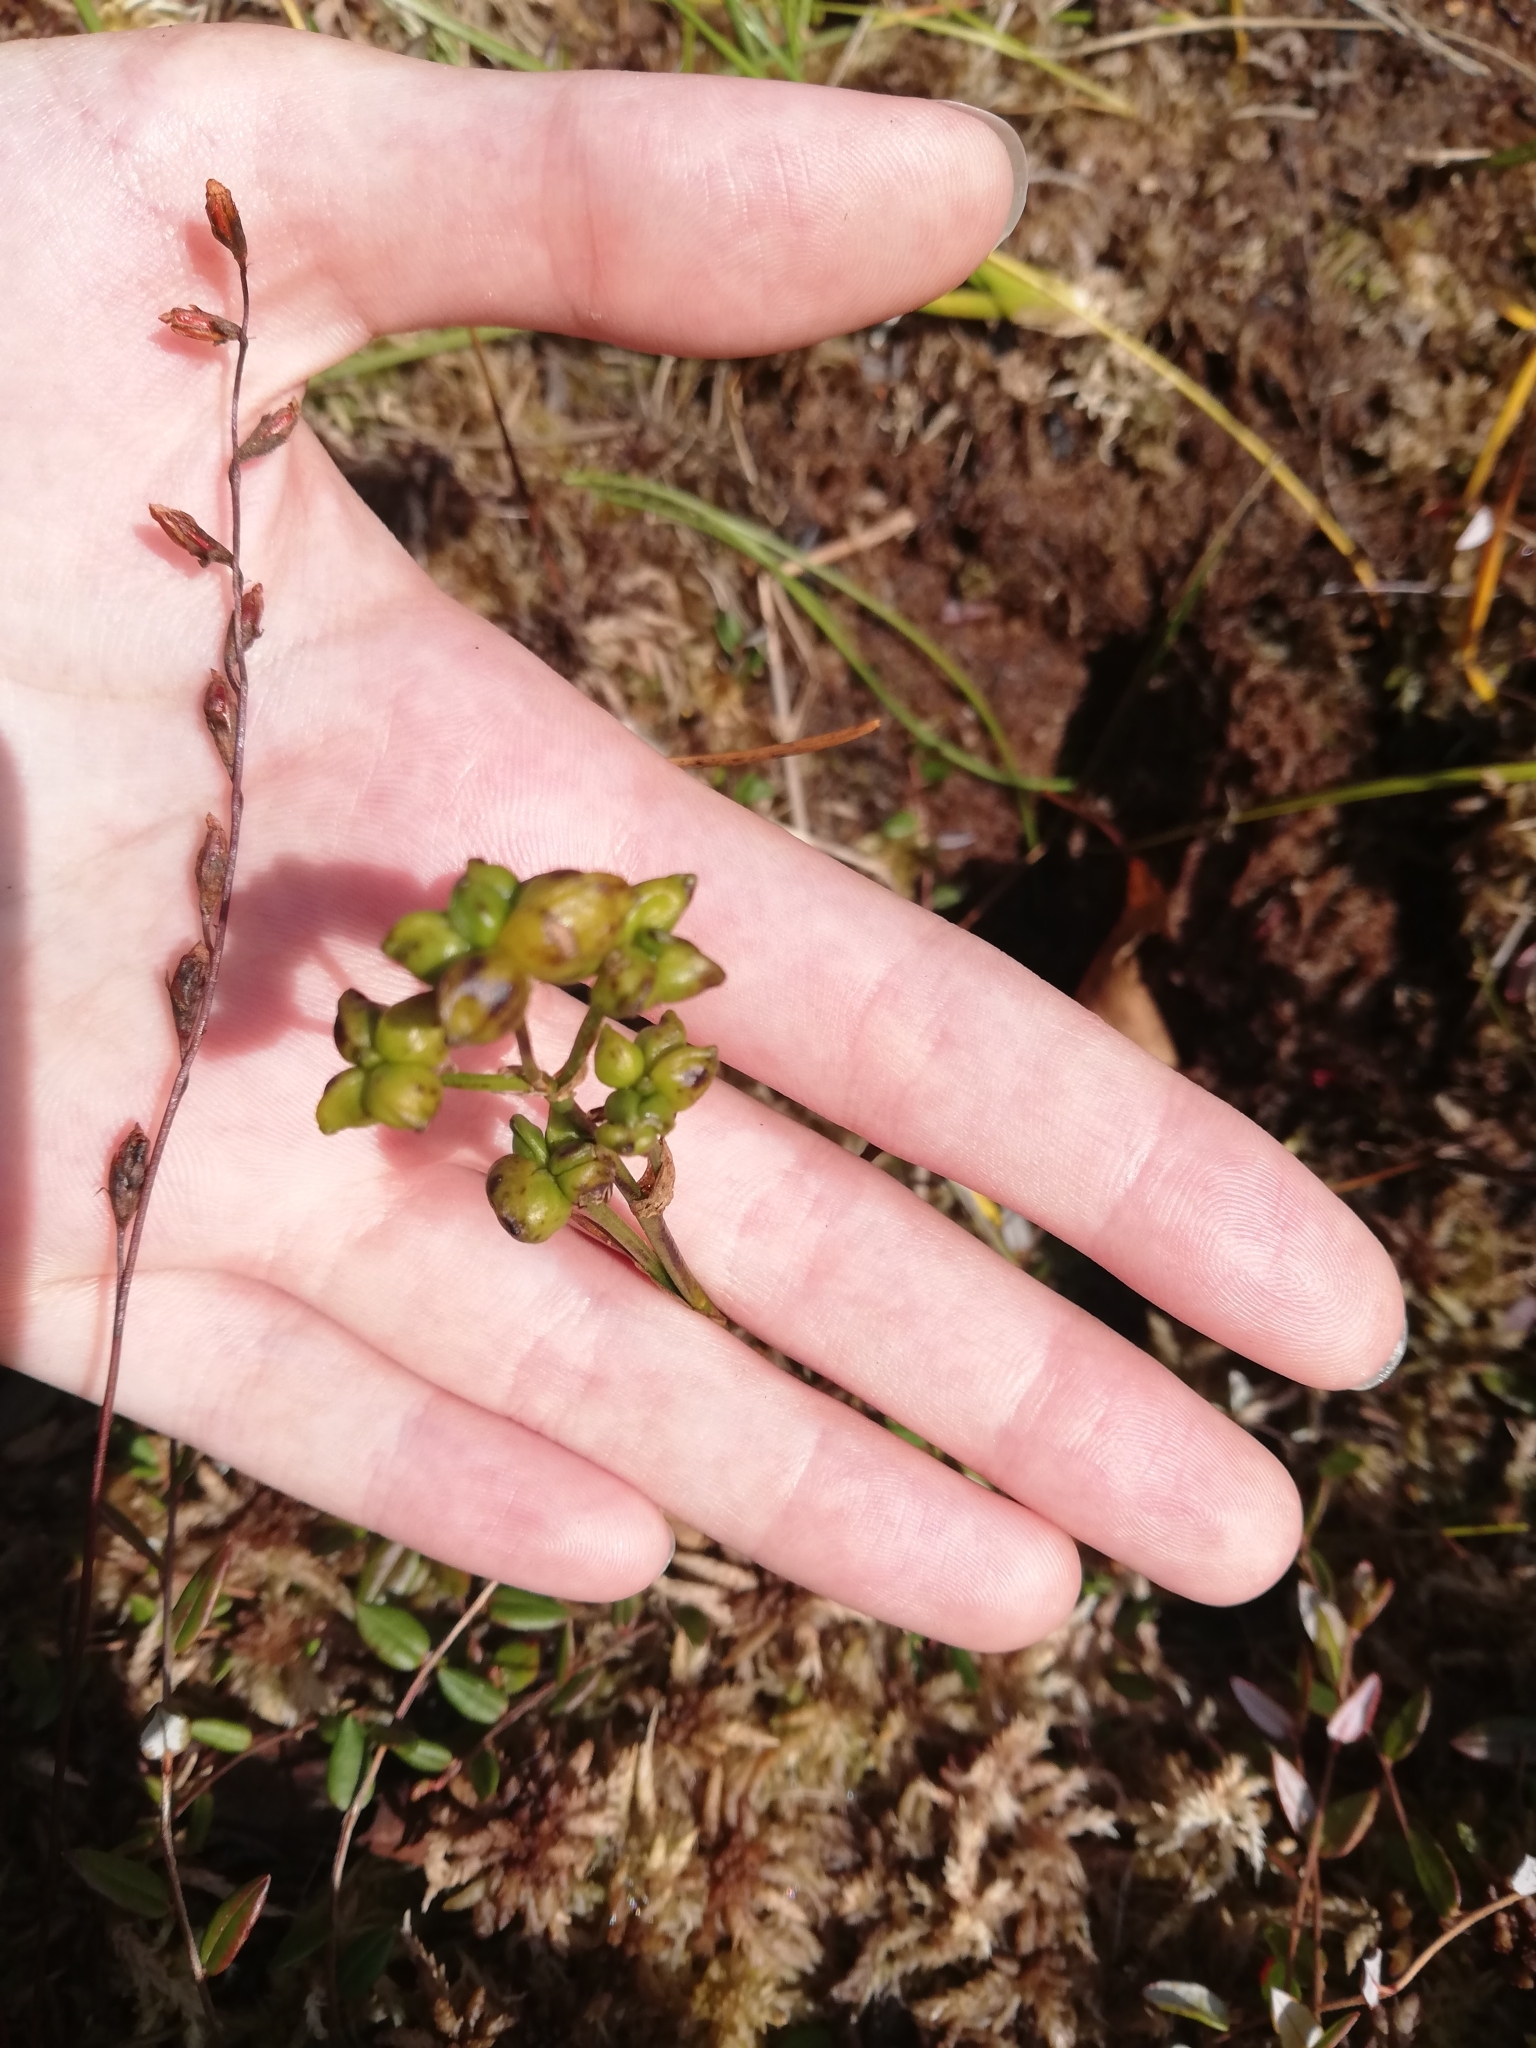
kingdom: Plantae
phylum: Tracheophyta
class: Liliopsida
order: Alismatales
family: Scheuchzeriaceae
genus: Scheuchzeria
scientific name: Scheuchzeria palustris
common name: Rannoch-rush
